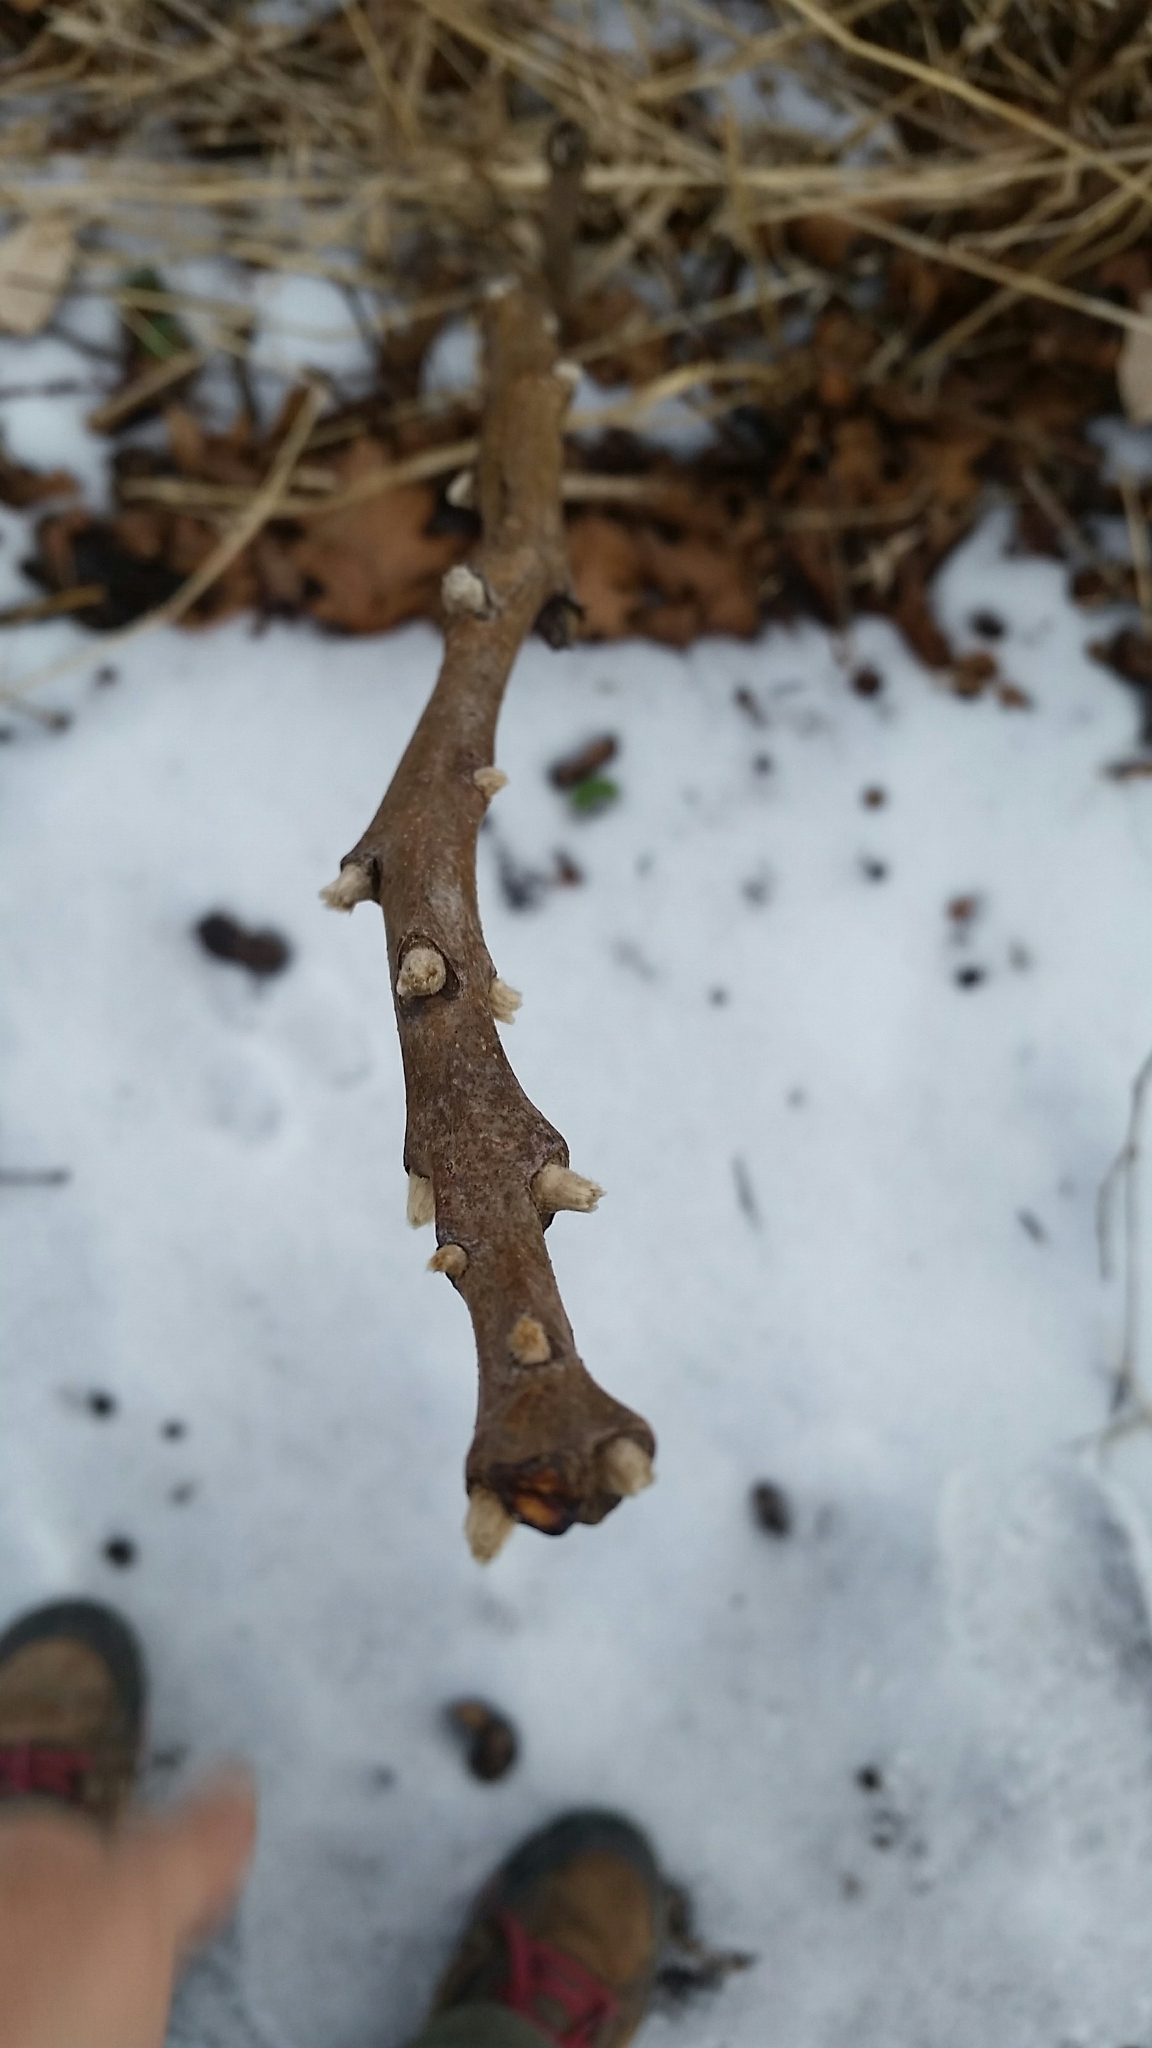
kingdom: Plantae
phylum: Tracheophyta
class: Magnoliopsida
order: Sapindales
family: Anacardiaceae
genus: Rhus
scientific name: Rhus typhina
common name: Staghorn sumac
